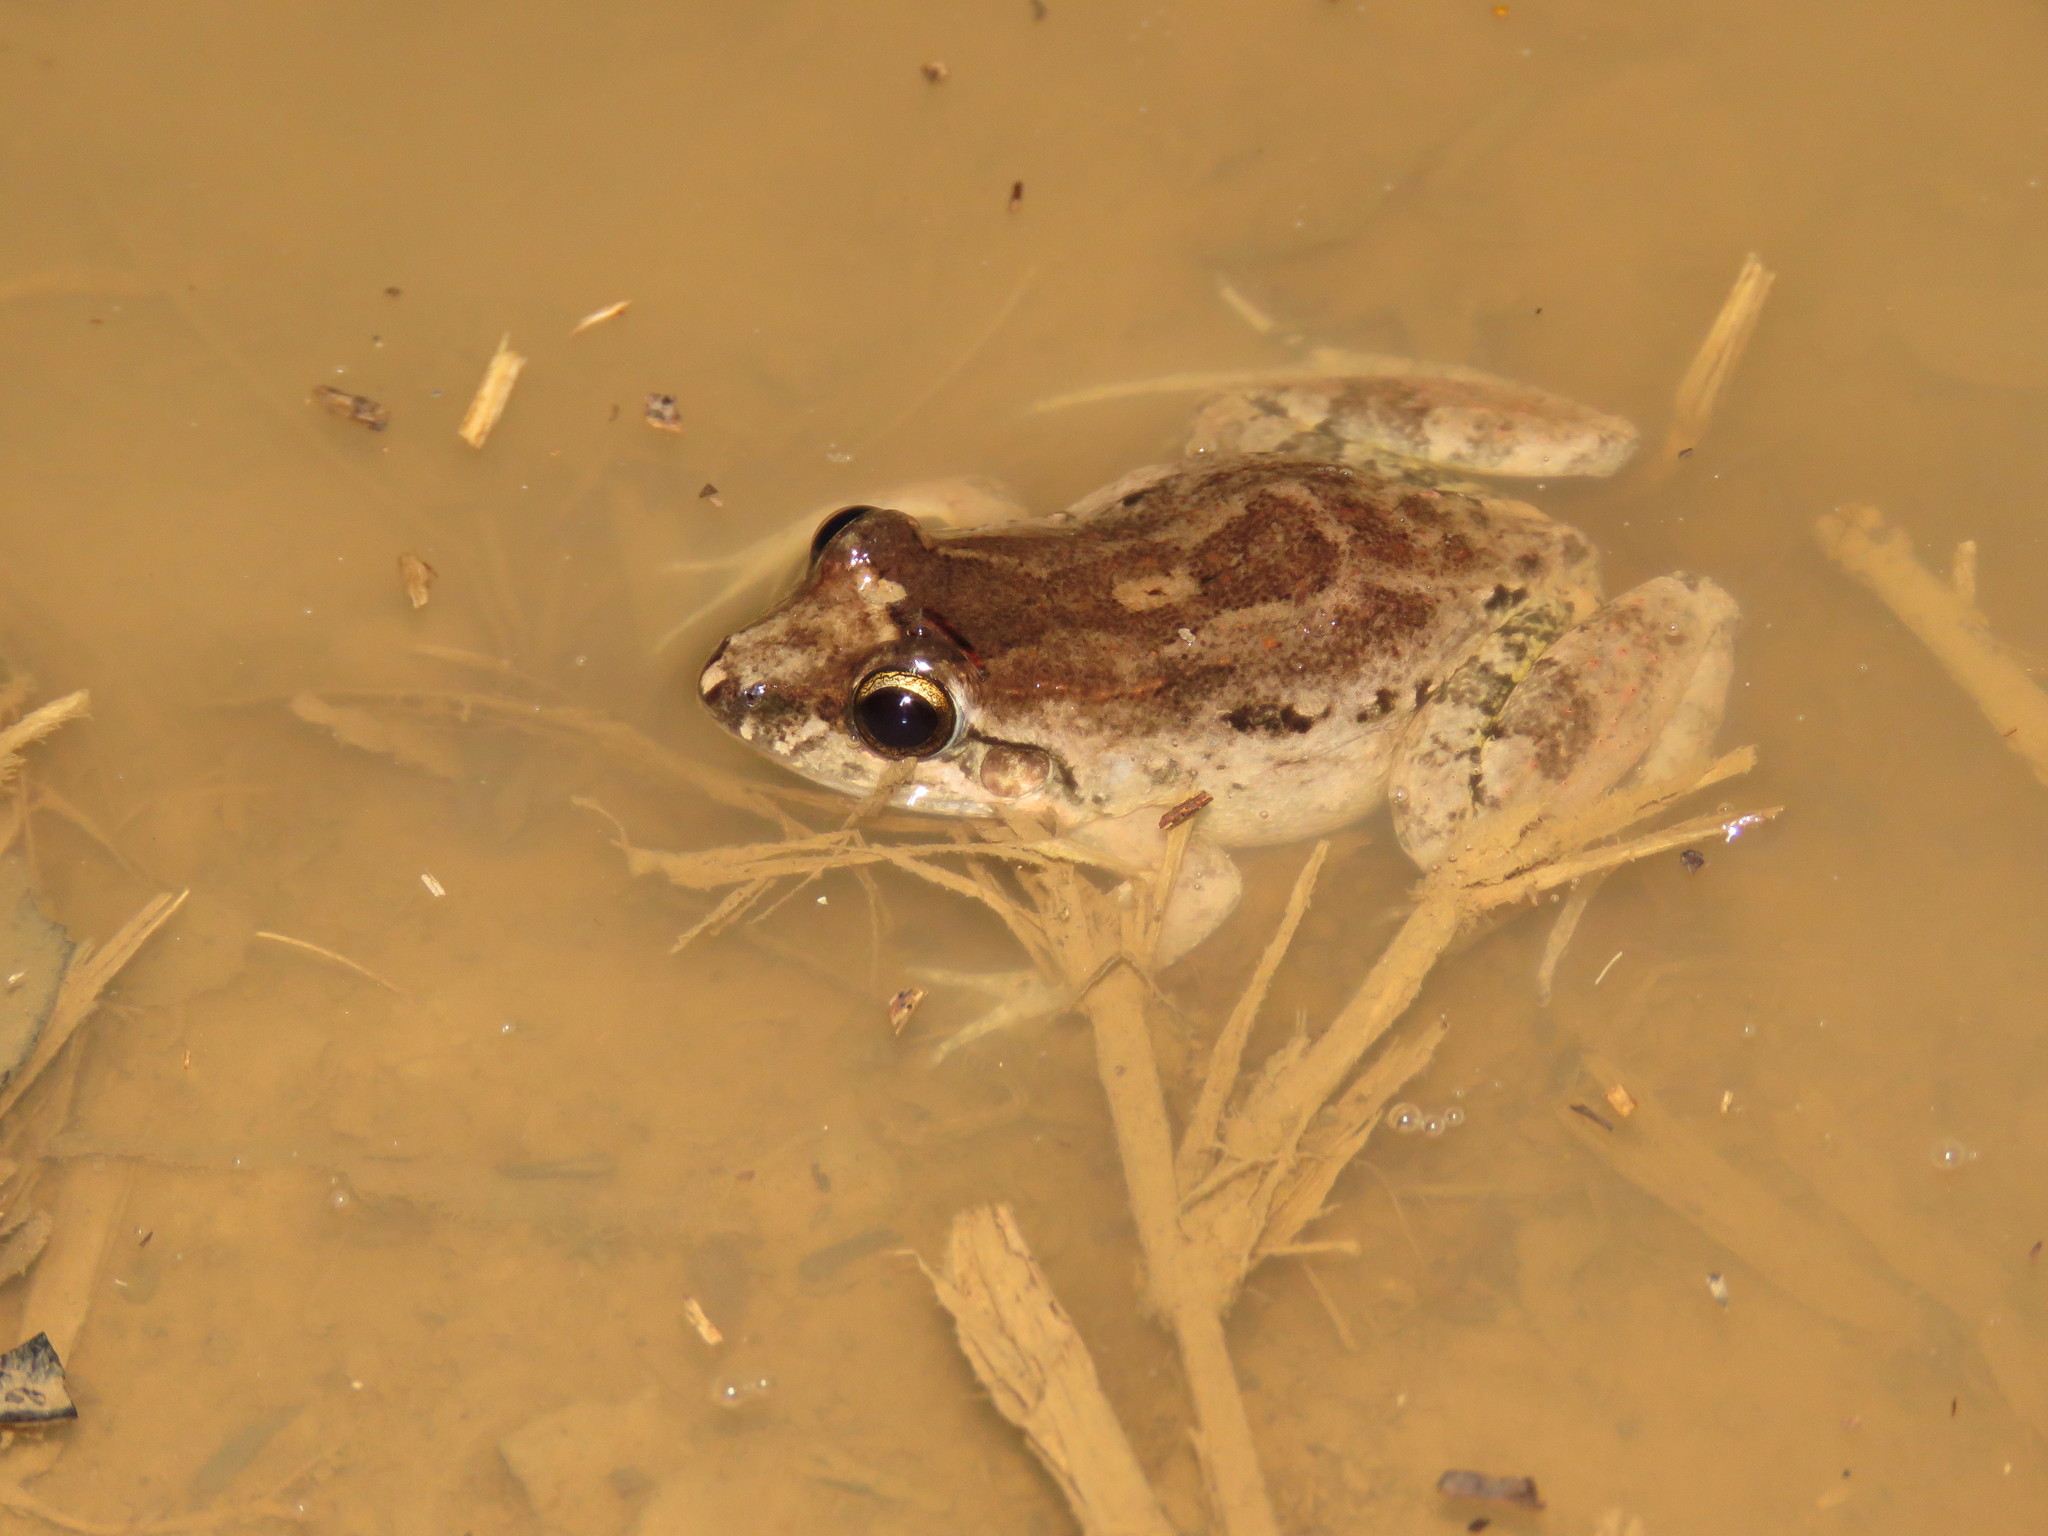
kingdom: Animalia
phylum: Chordata
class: Amphibia
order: Anura
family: Leptodactylidae
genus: Leptodactylus
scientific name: Leptodactylus petersii
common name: Peters' thin-toed frog
